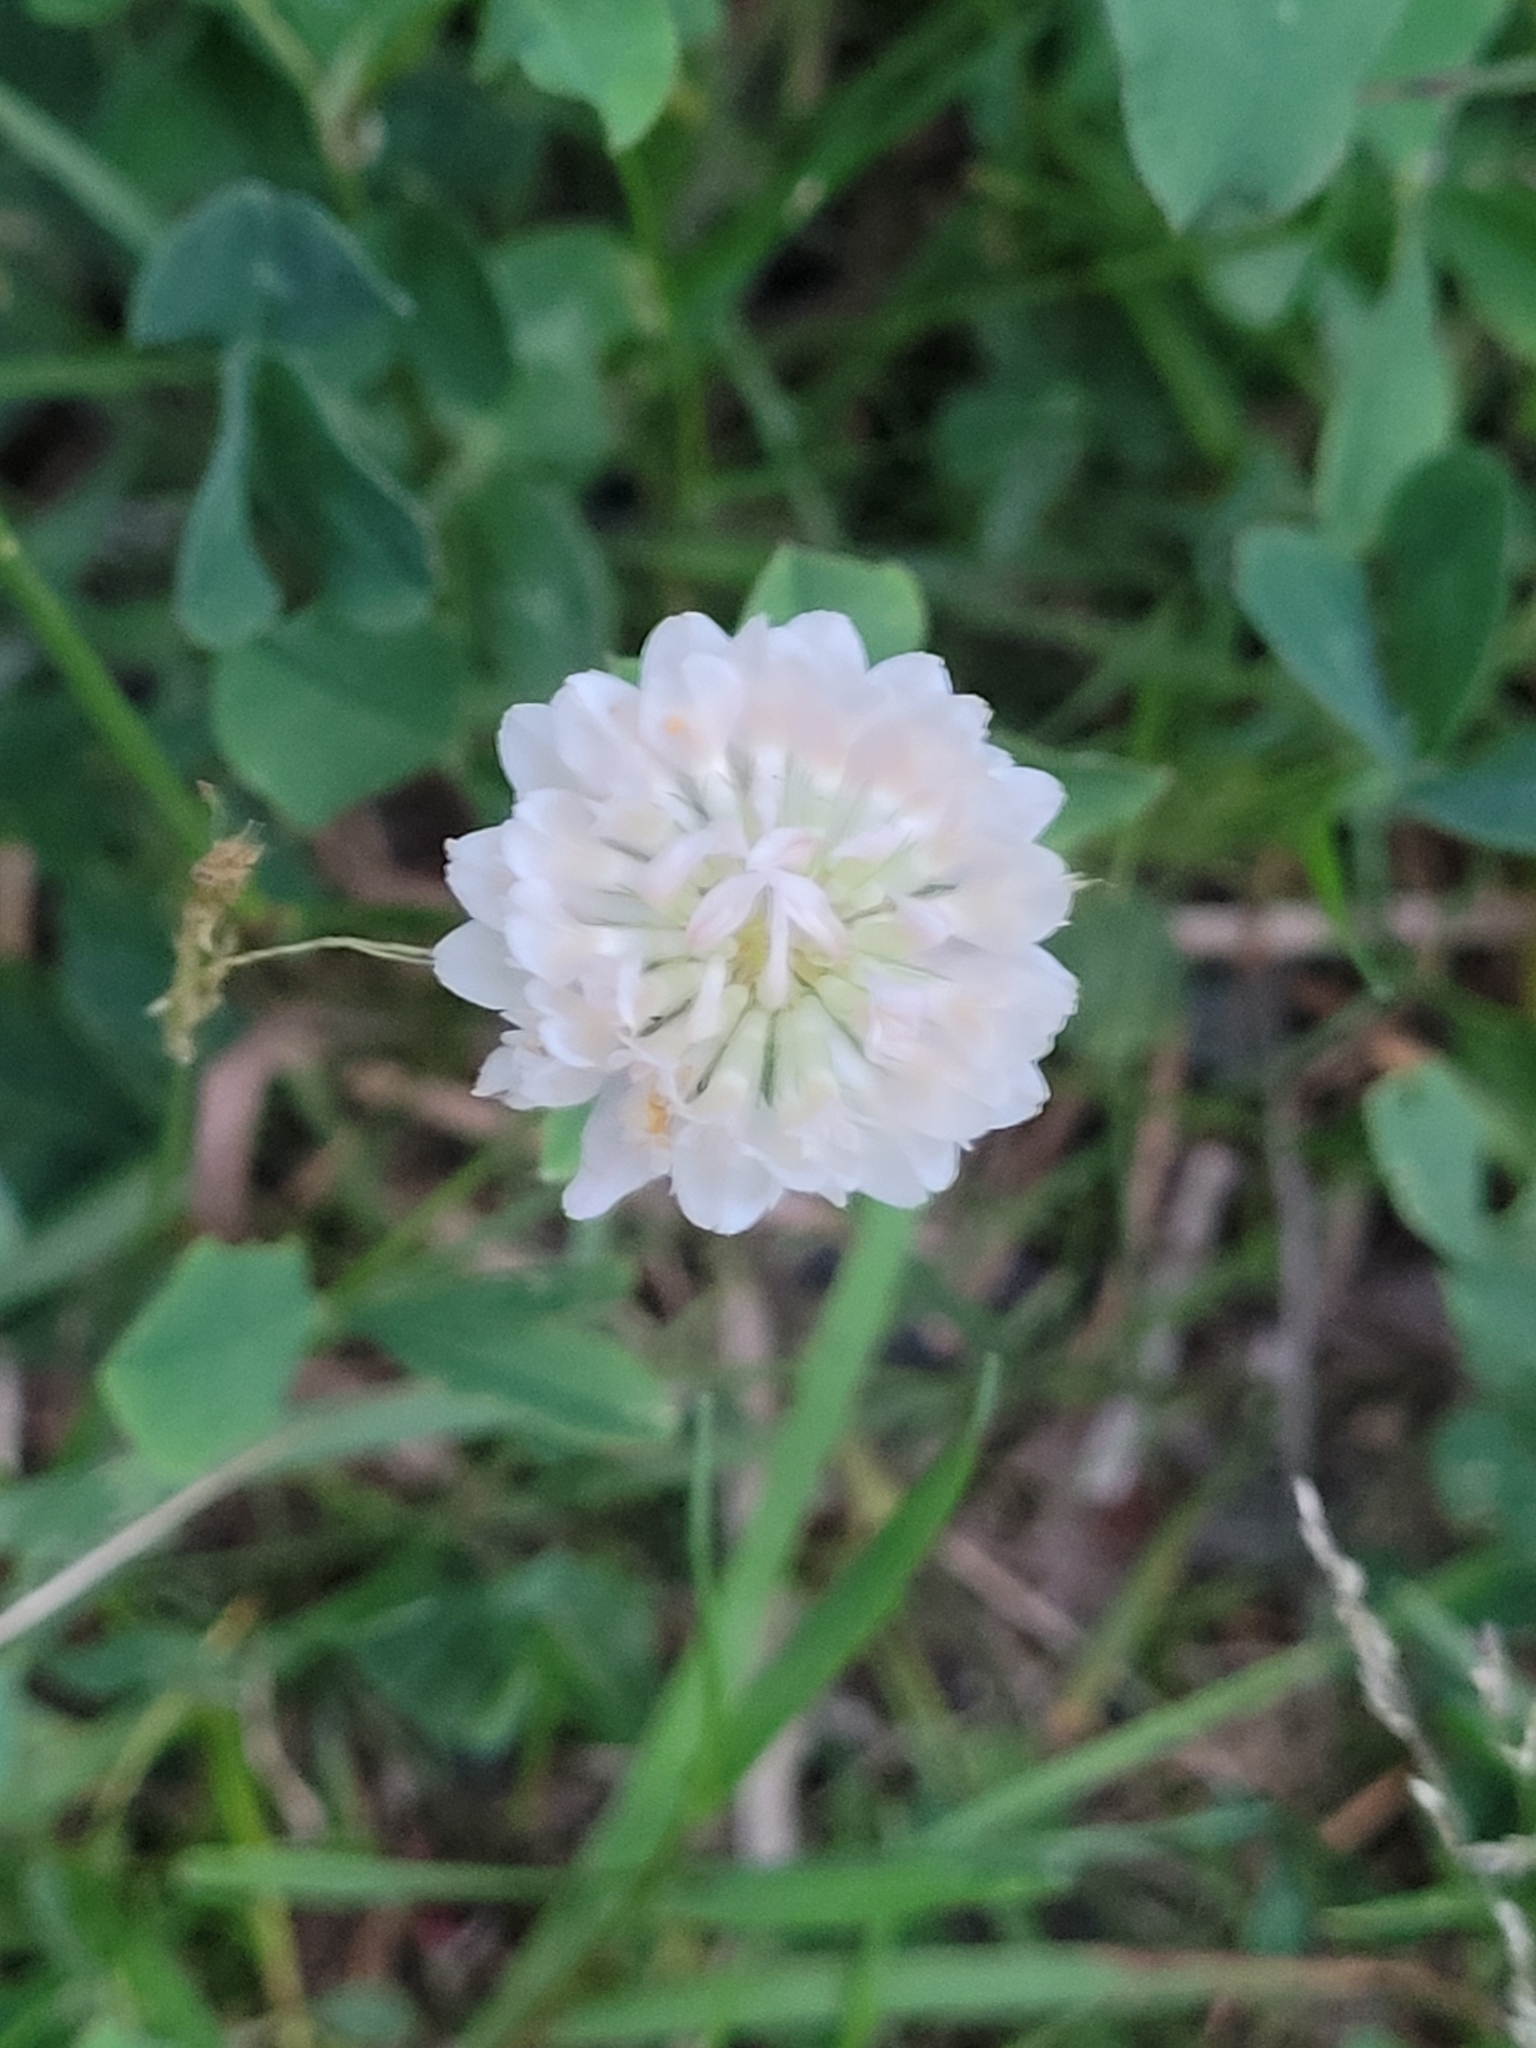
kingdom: Plantae
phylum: Tracheophyta
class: Magnoliopsida
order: Fabales
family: Fabaceae
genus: Trifolium
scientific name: Trifolium repens
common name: White clover
